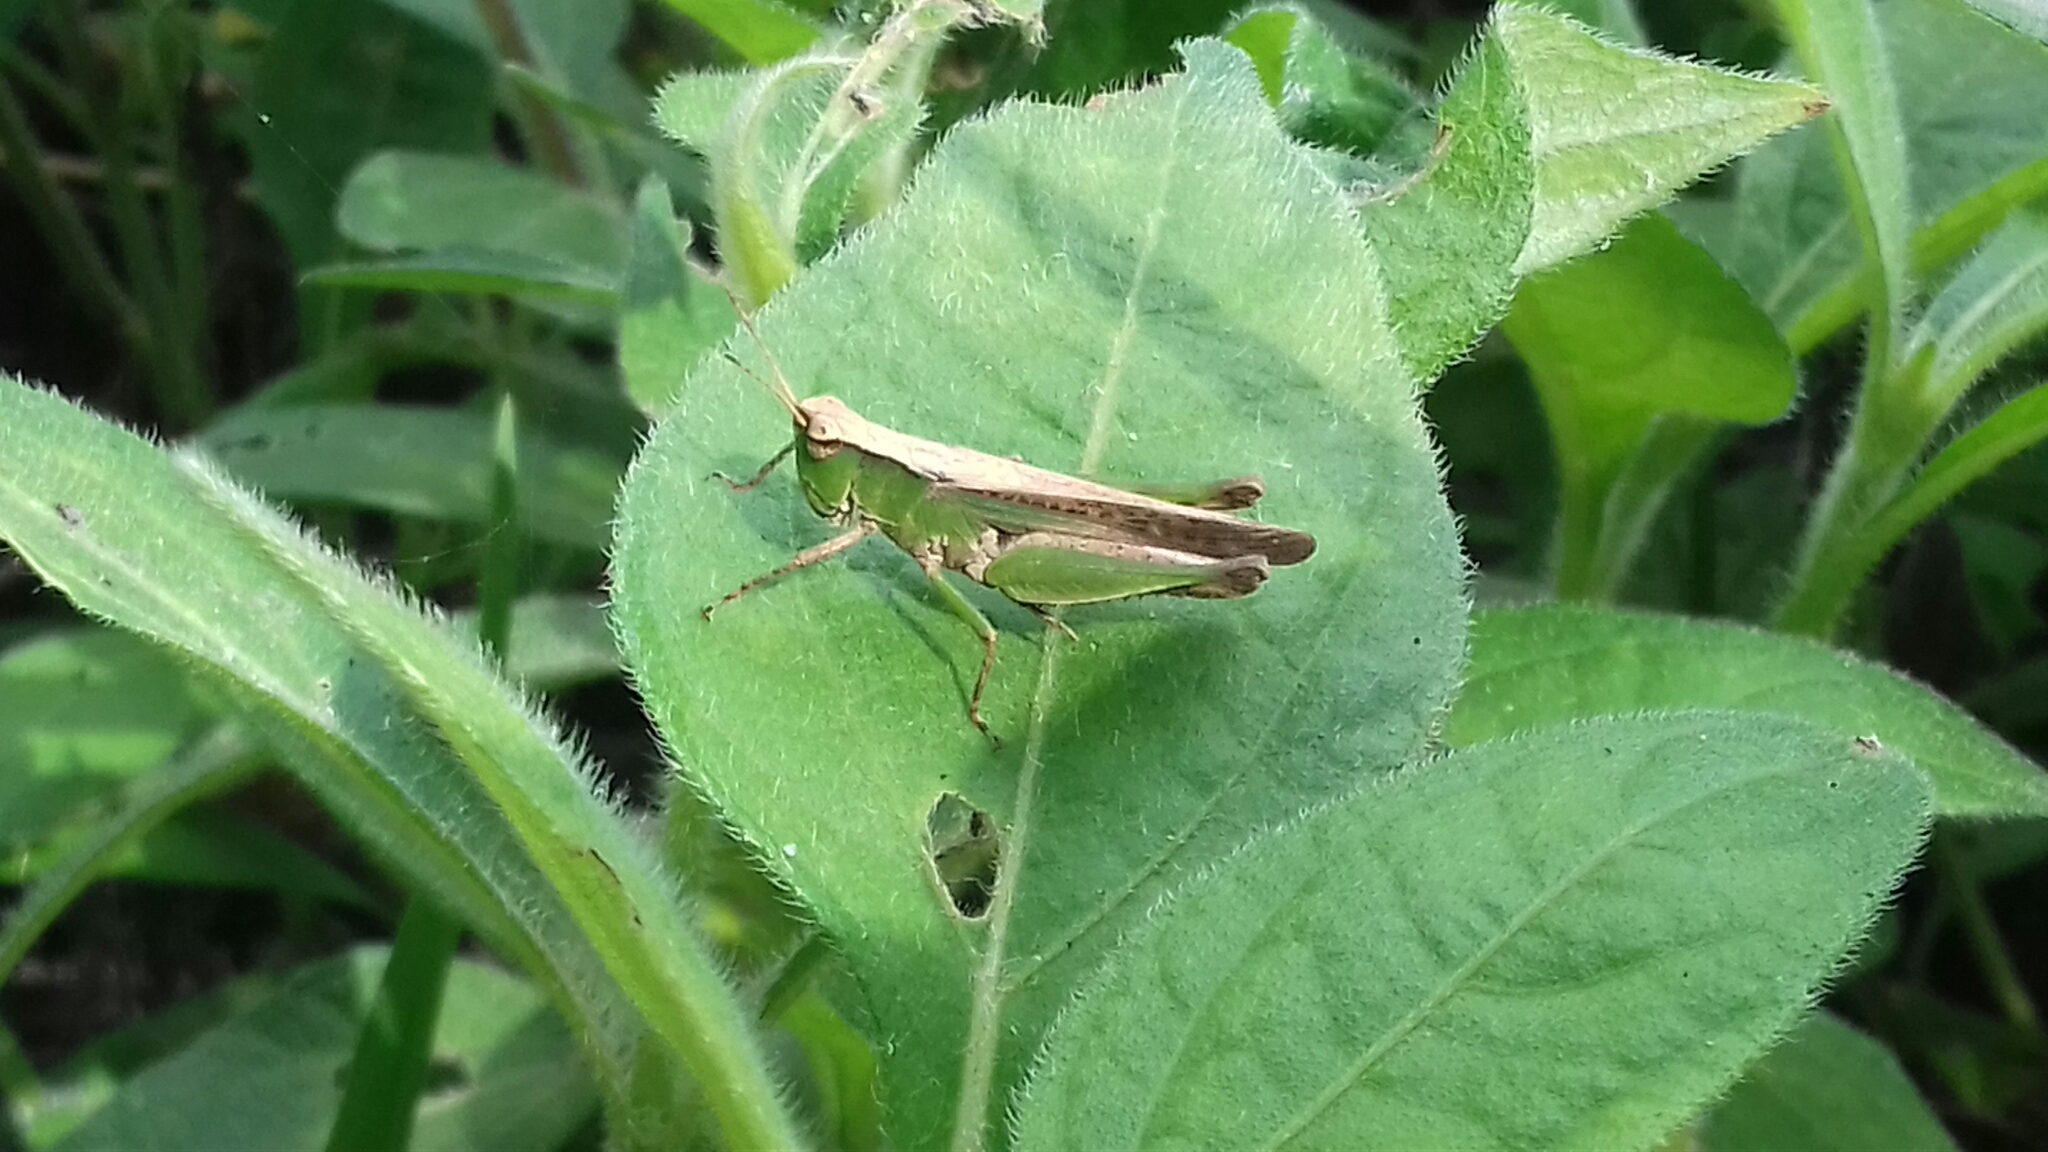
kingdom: Animalia
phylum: Arthropoda
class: Insecta
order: Orthoptera
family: Acrididae
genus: Orphulella
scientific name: Orphulella punctata
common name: Slant-faced grasshopper
